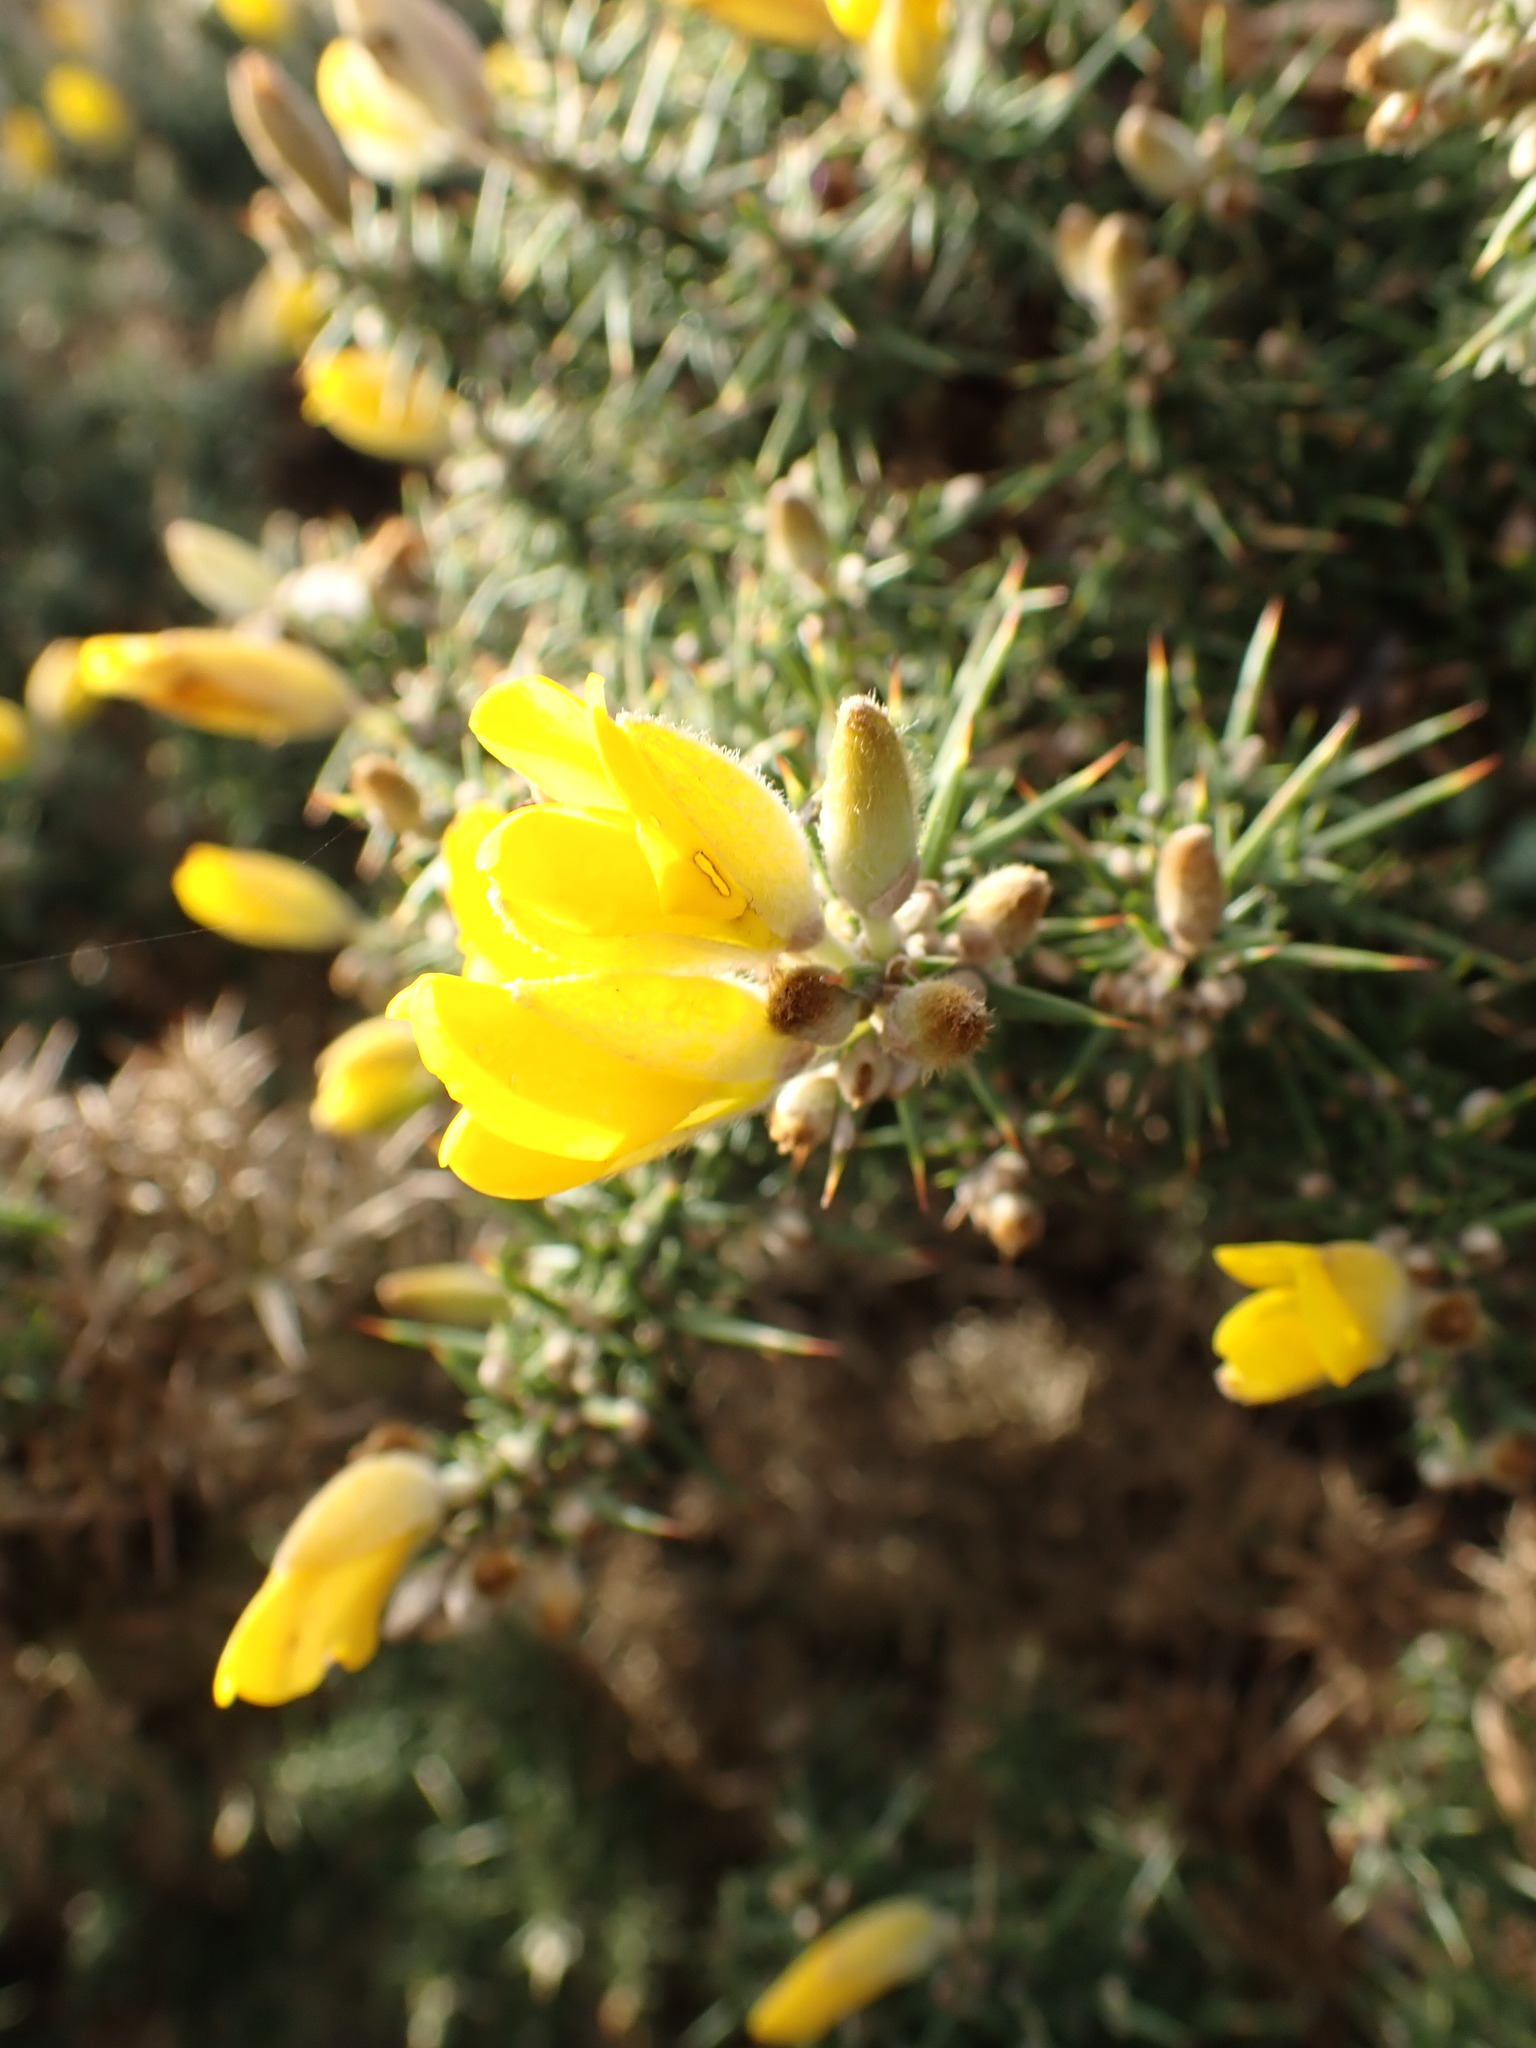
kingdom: Plantae
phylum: Tracheophyta
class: Magnoliopsida
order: Fabales
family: Fabaceae
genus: Ulex
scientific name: Ulex europaeus
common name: Common gorse
